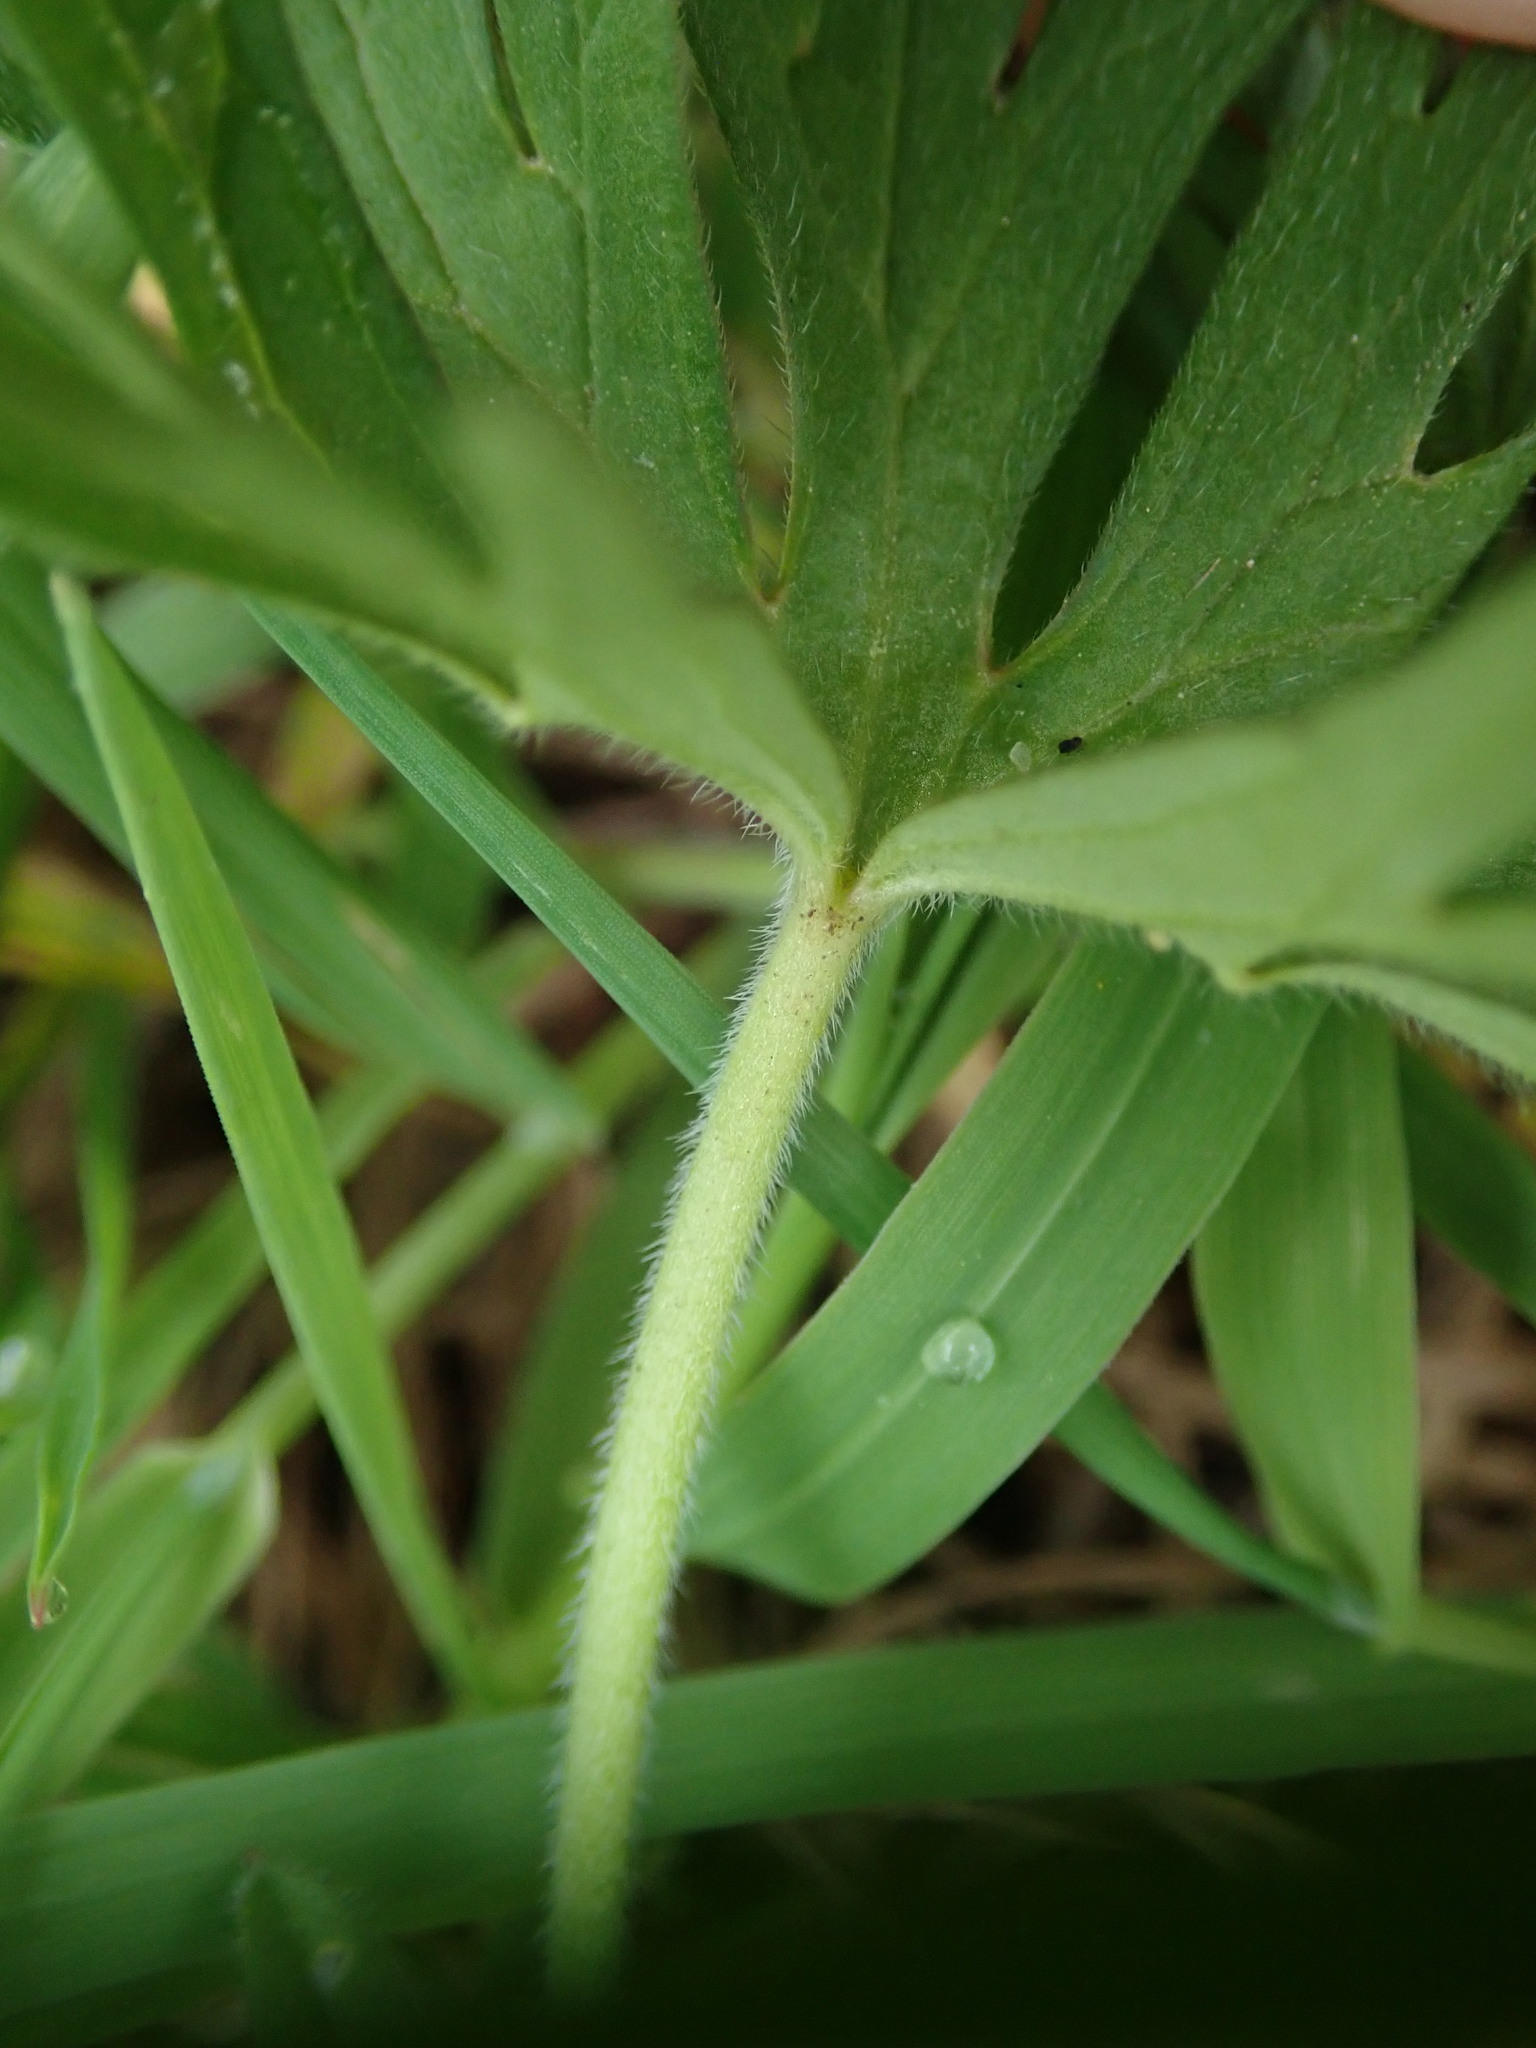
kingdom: Plantae
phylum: Tracheophyta
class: Magnoliopsida
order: Geraniales
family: Geraniaceae
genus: Geranium
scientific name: Geranium dissectum
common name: Cut-leaved crane's-bill
